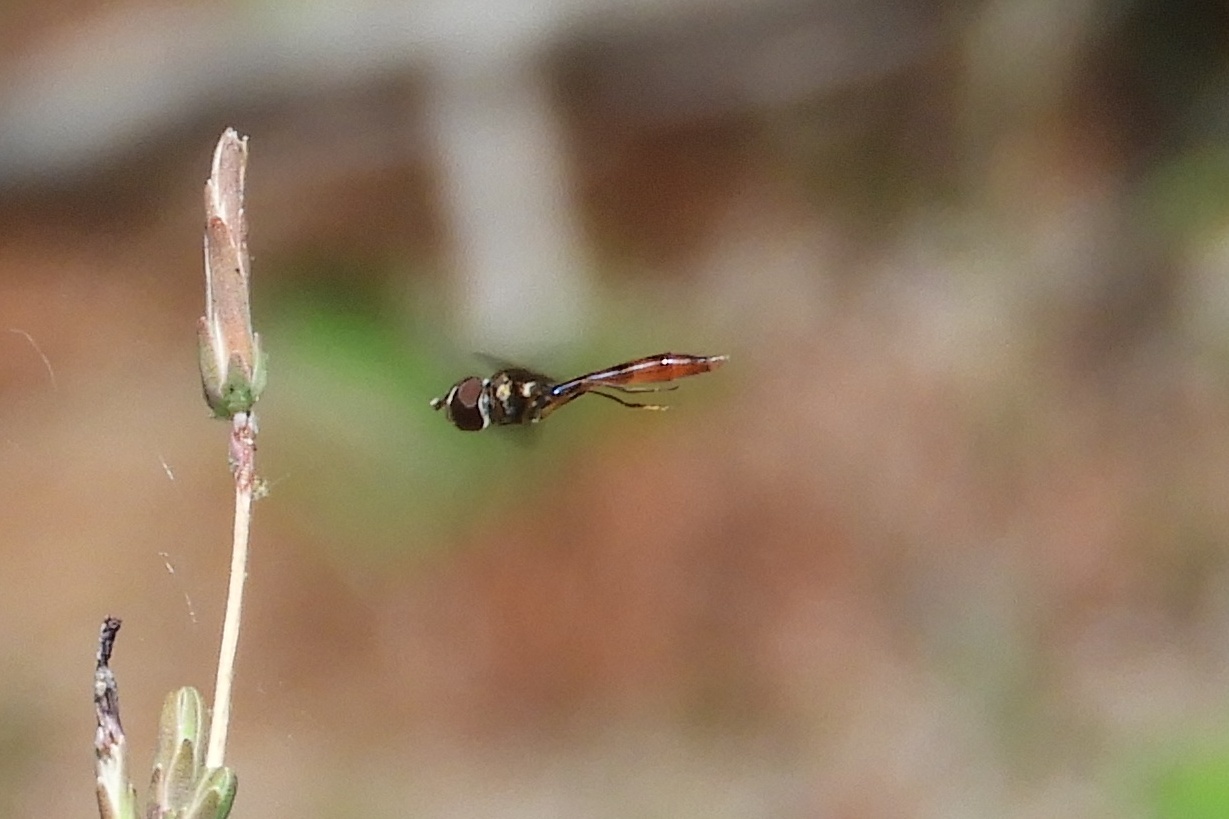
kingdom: Animalia
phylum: Arthropoda
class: Insecta
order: Diptera
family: Syrphidae
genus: Ocyptamus
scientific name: Ocyptamus fuscipennis
